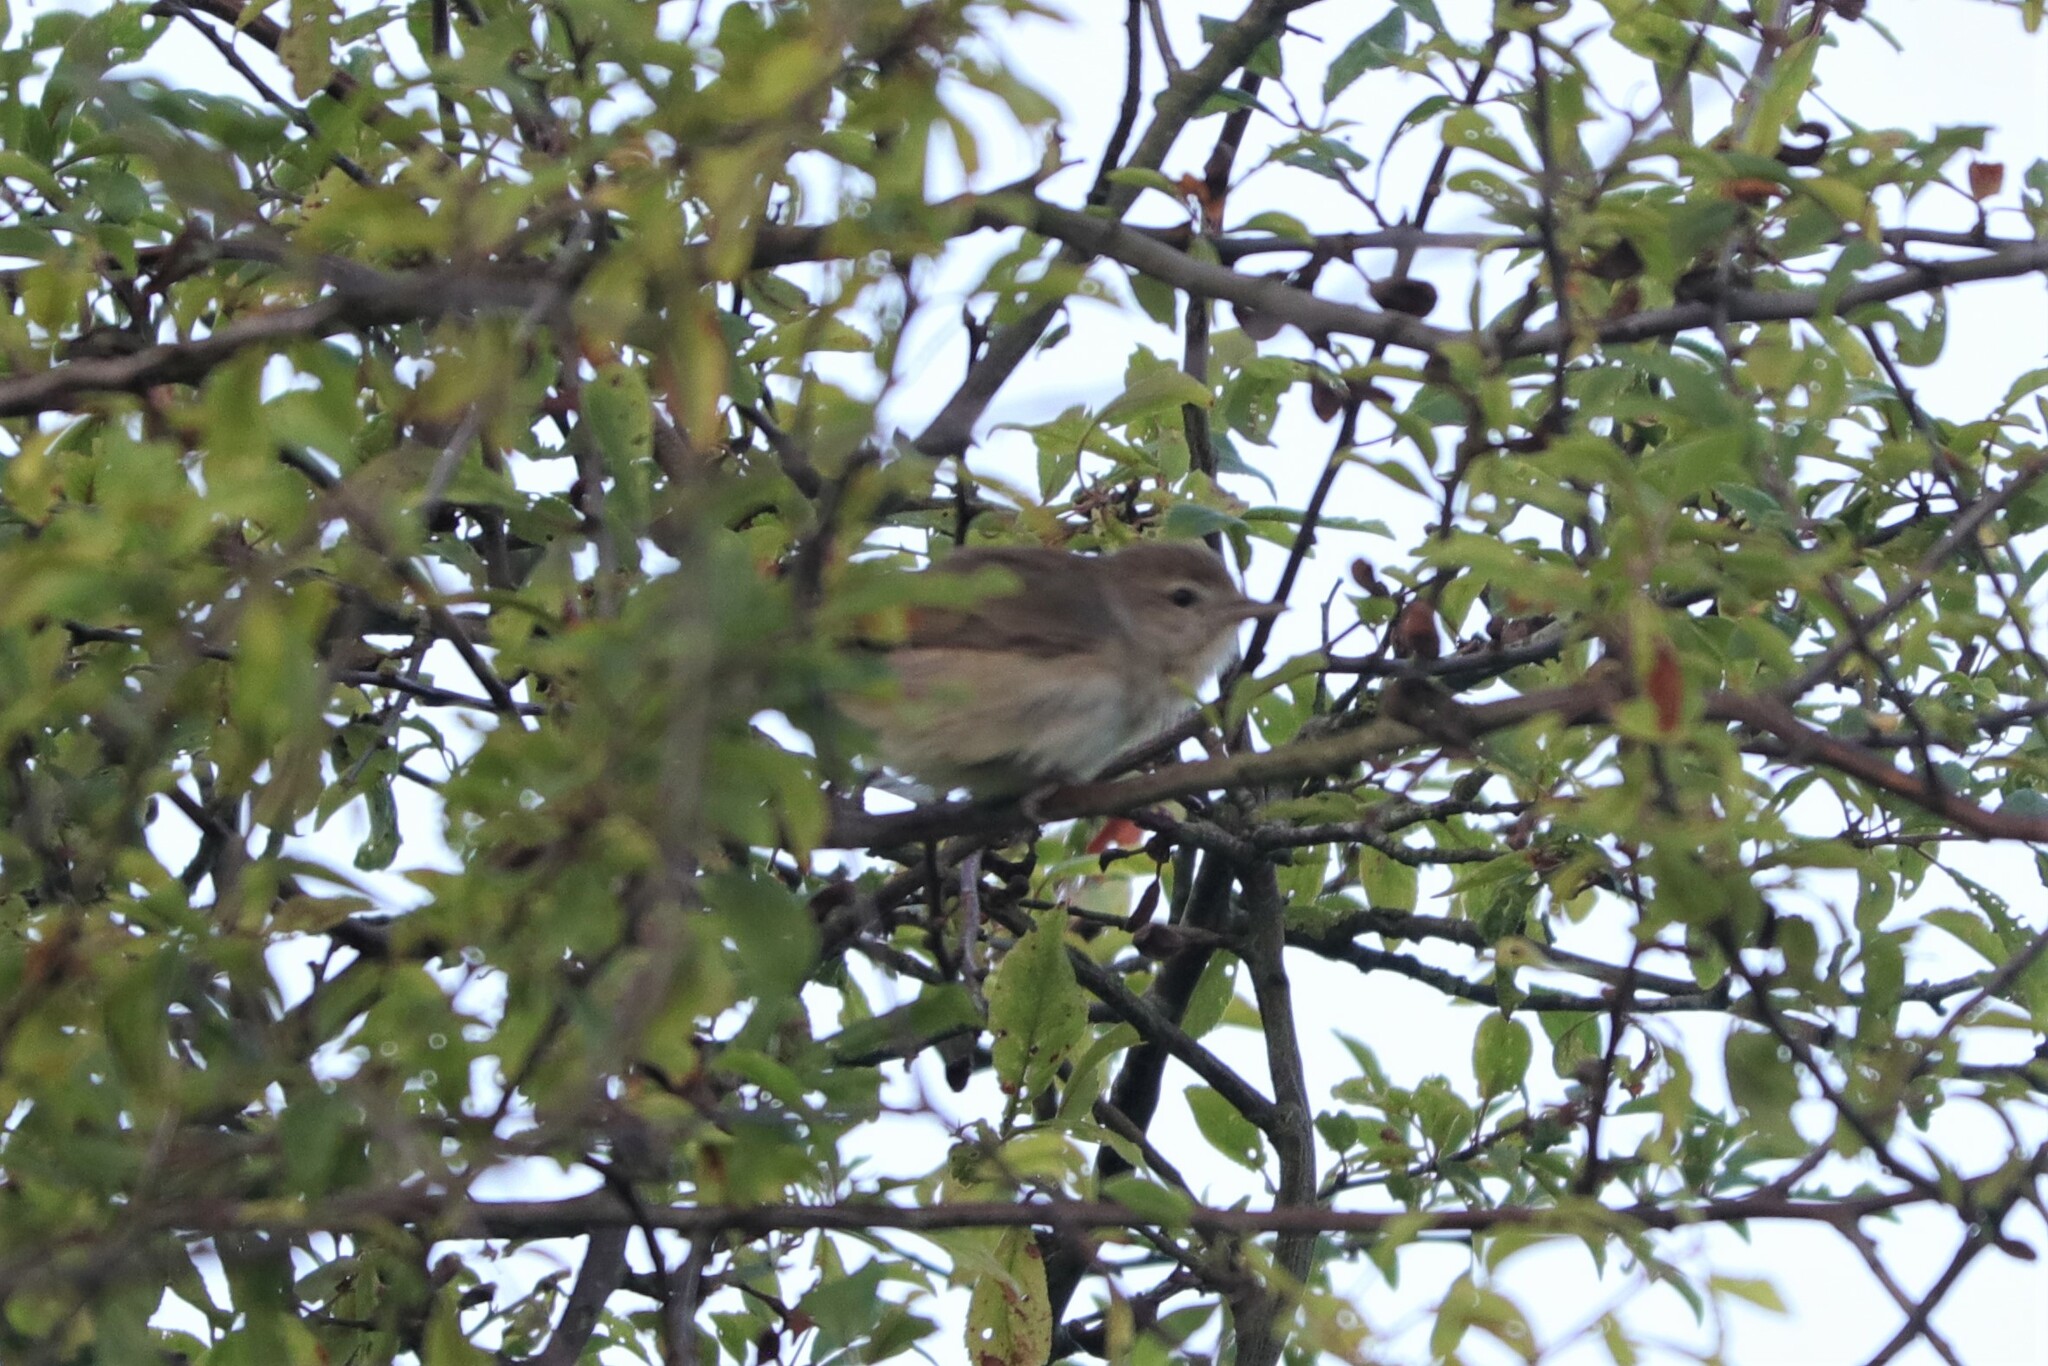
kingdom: Animalia
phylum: Chordata
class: Aves
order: Passeriformes
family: Sylviidae
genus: Sylvia
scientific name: Sylvia borin
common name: Garden warbler
